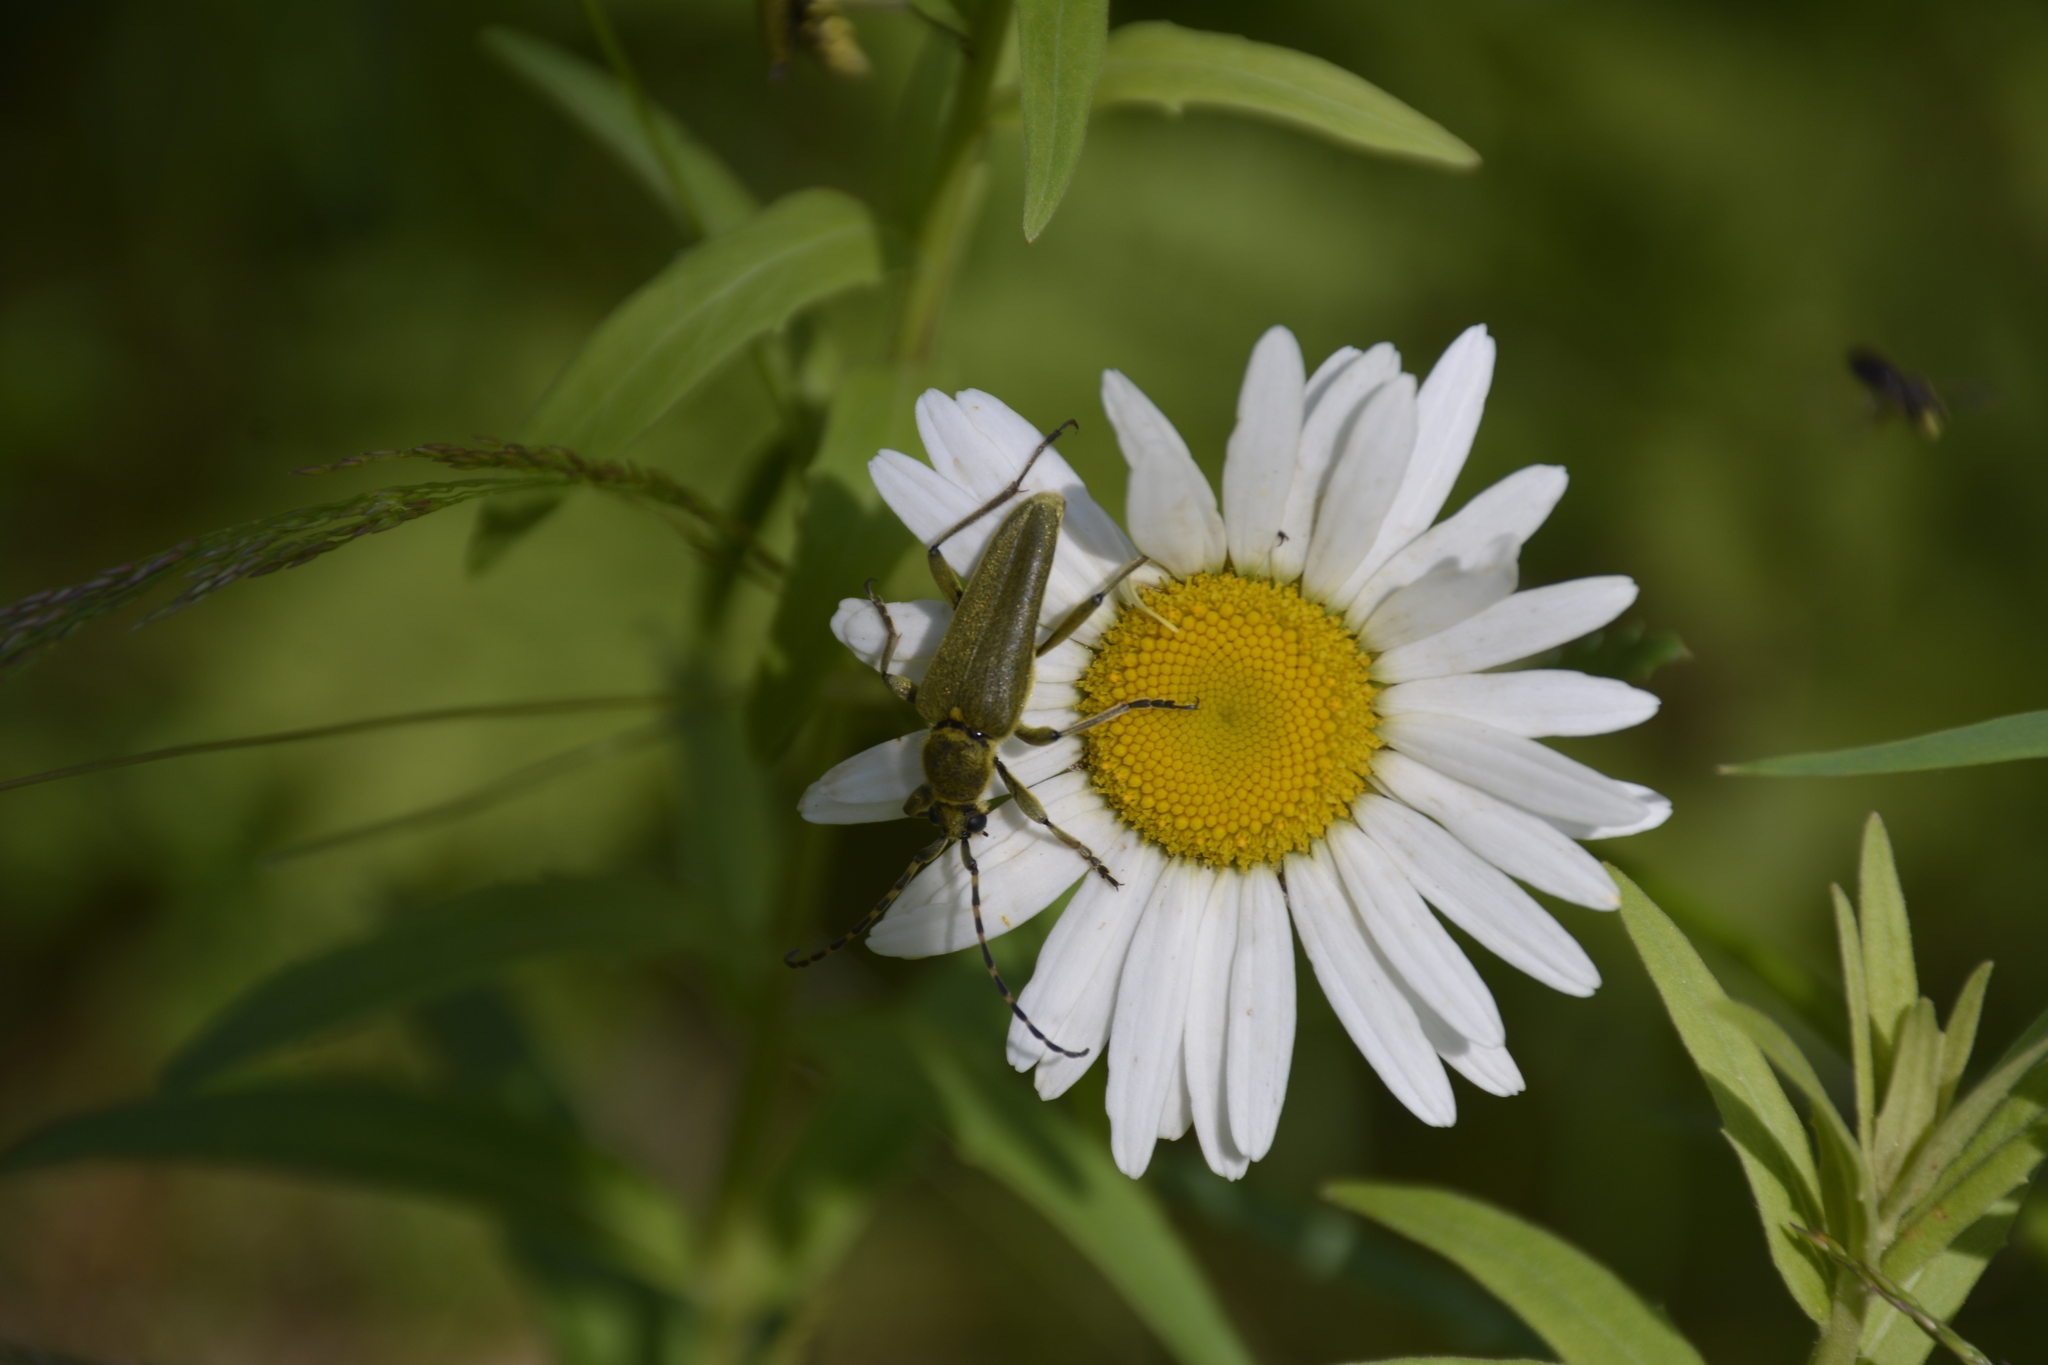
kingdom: Animalia
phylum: Arthropoda
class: Insecta
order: Coleoptera
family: Cerambycidae
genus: Lepturobosca
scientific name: Lepturobosca virens
